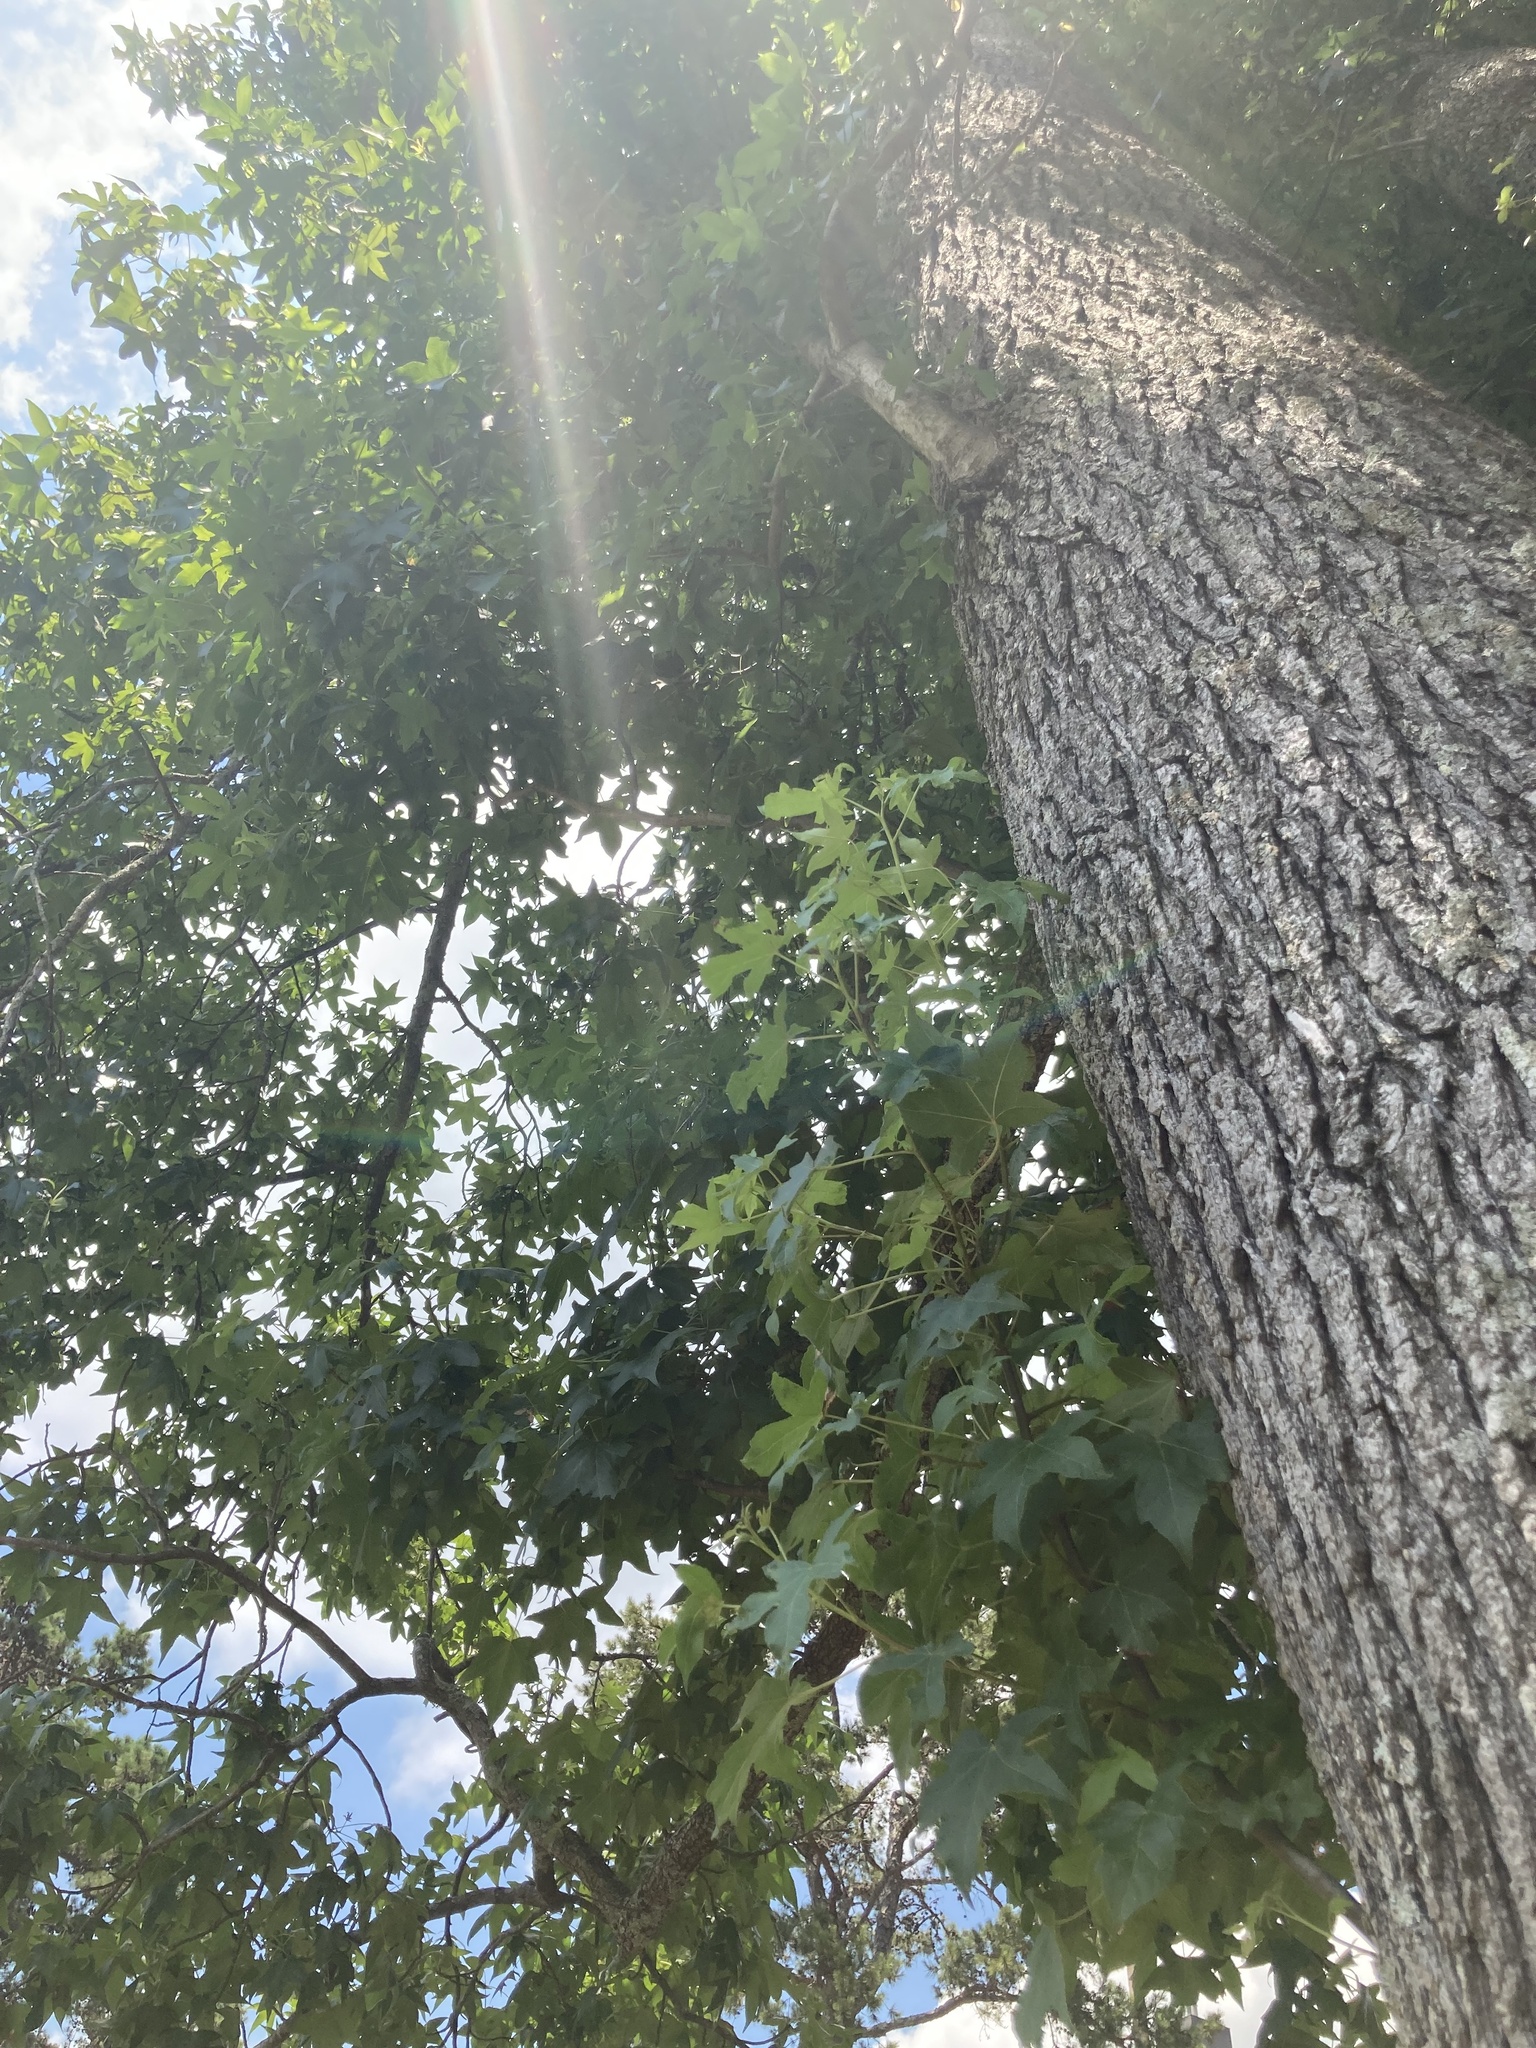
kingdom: Plantae
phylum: Tracheophyta
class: Magnoliopsida
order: Saxifragales
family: Altingiaceae
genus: Liquidambar
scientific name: Liquidambar styraciflua
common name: Sweet gum
